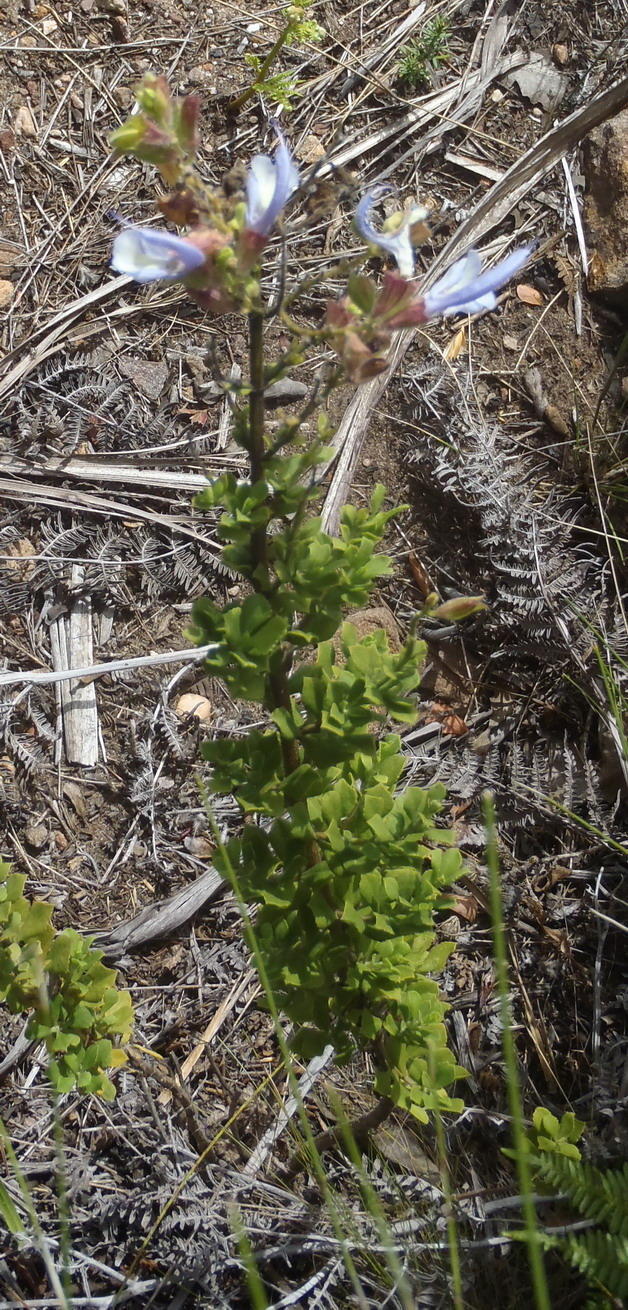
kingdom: Plantae
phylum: Tracheophyta
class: Magnoliopsida
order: Lamiales
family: Lamiaceae
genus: Salvia
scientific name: Salvia africana
